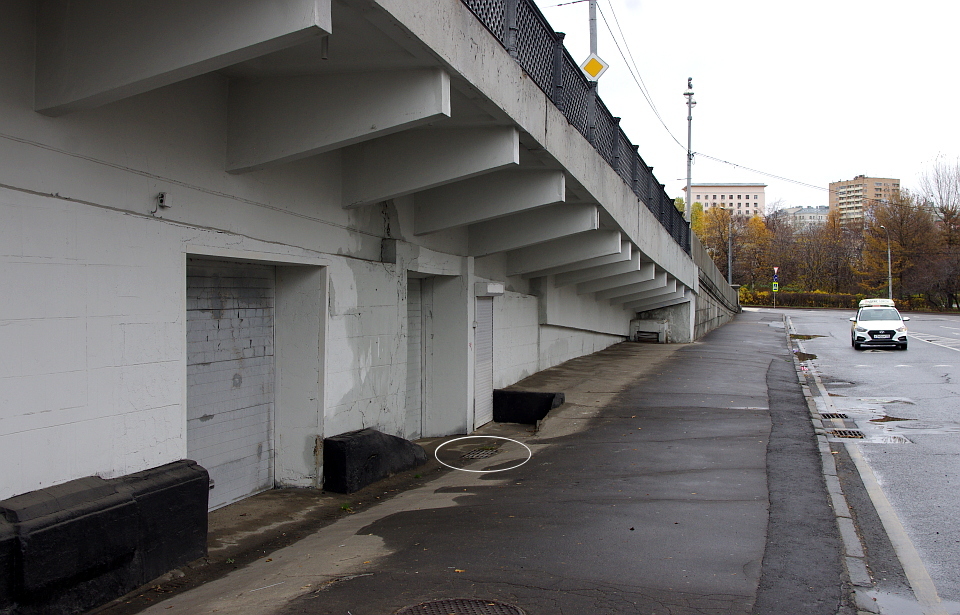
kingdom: Plantae
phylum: Tracheophyta
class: Liliopsida
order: Poales
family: Poaceae
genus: Cynodon
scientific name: Cynodon dactylon
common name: Bermuda grass
